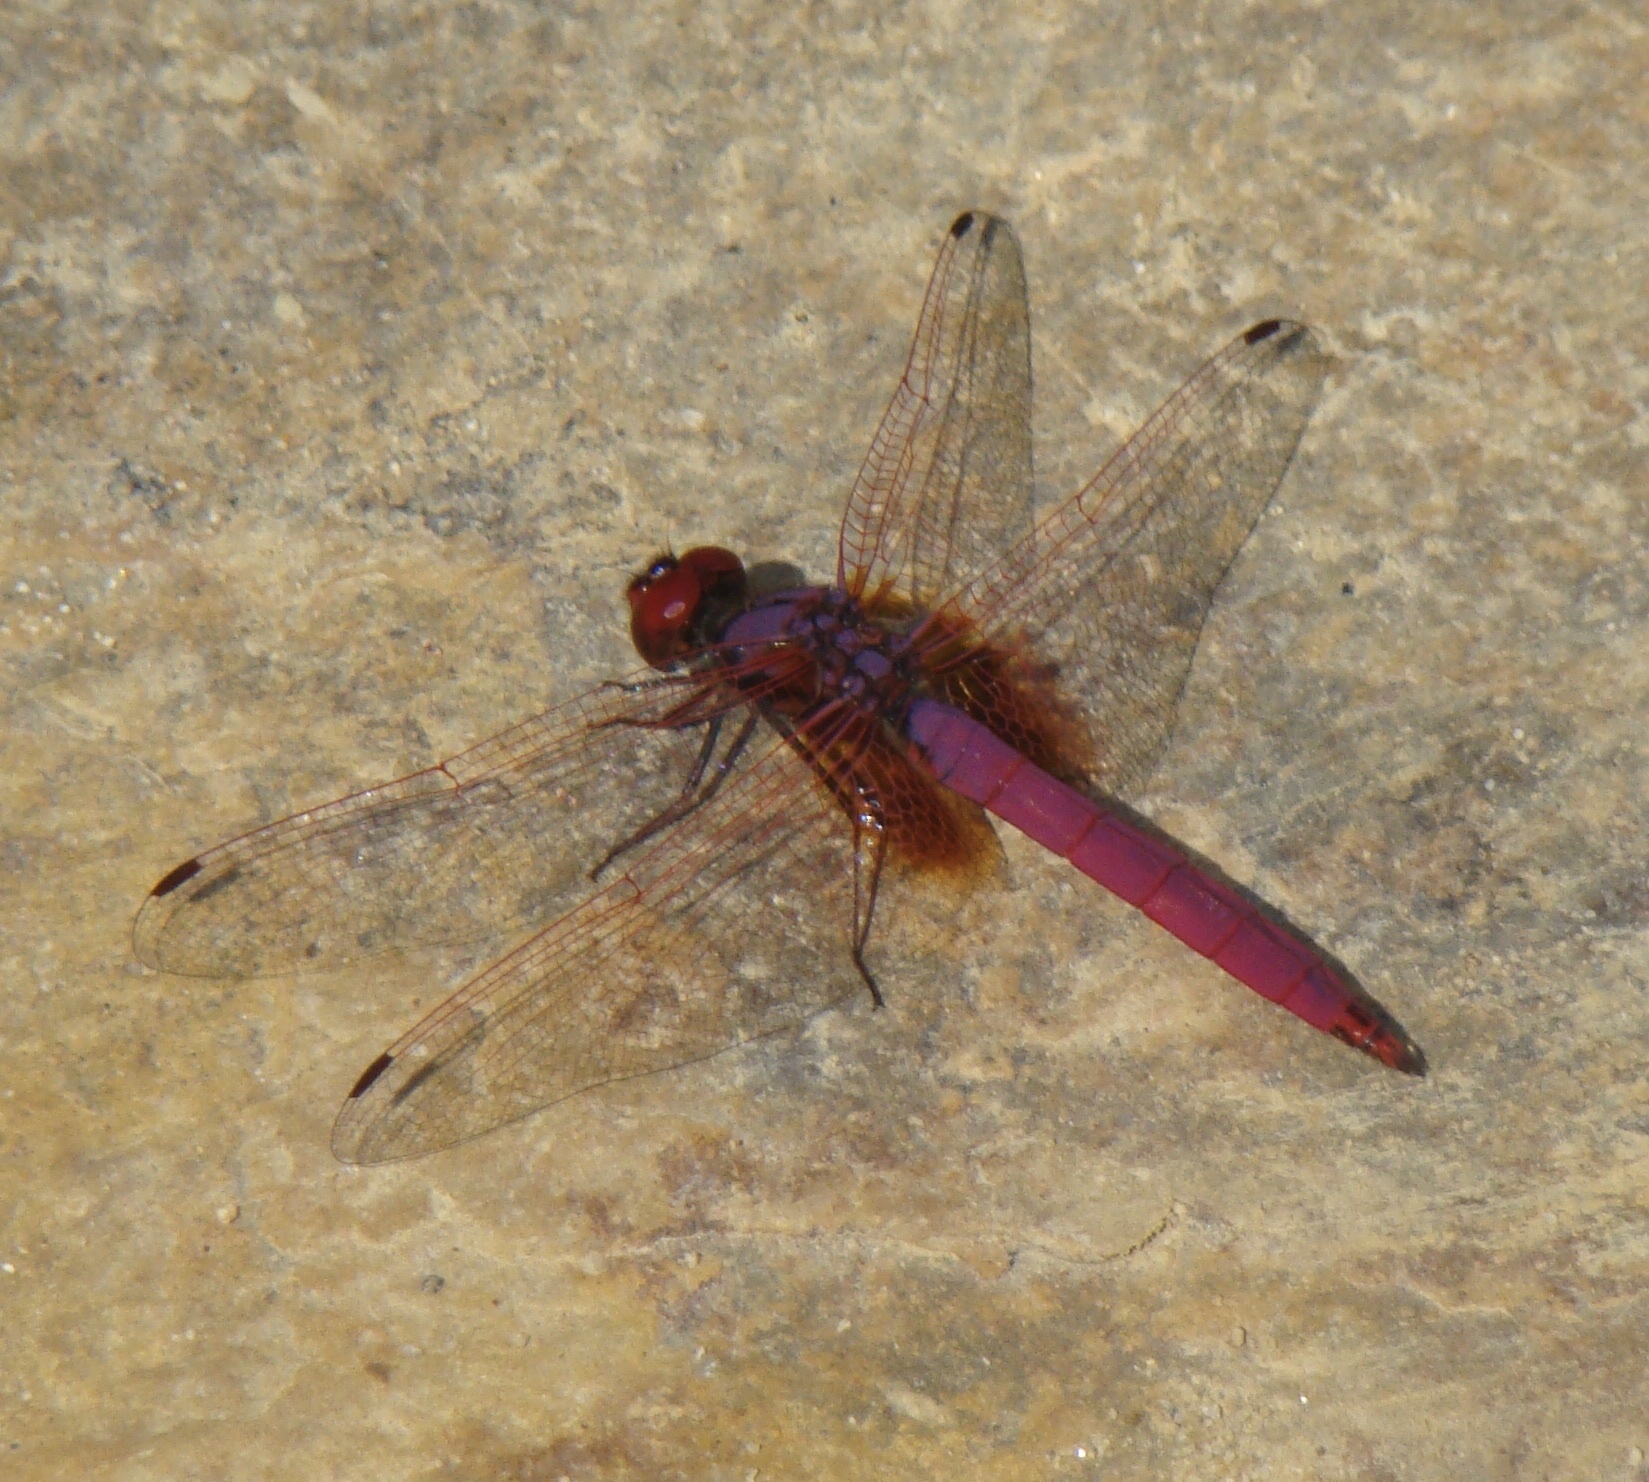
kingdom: Animalia
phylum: Arthropoda
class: Insecta
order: Odonata
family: Libellulidae
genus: Trithemis
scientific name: Trithemis aurora
